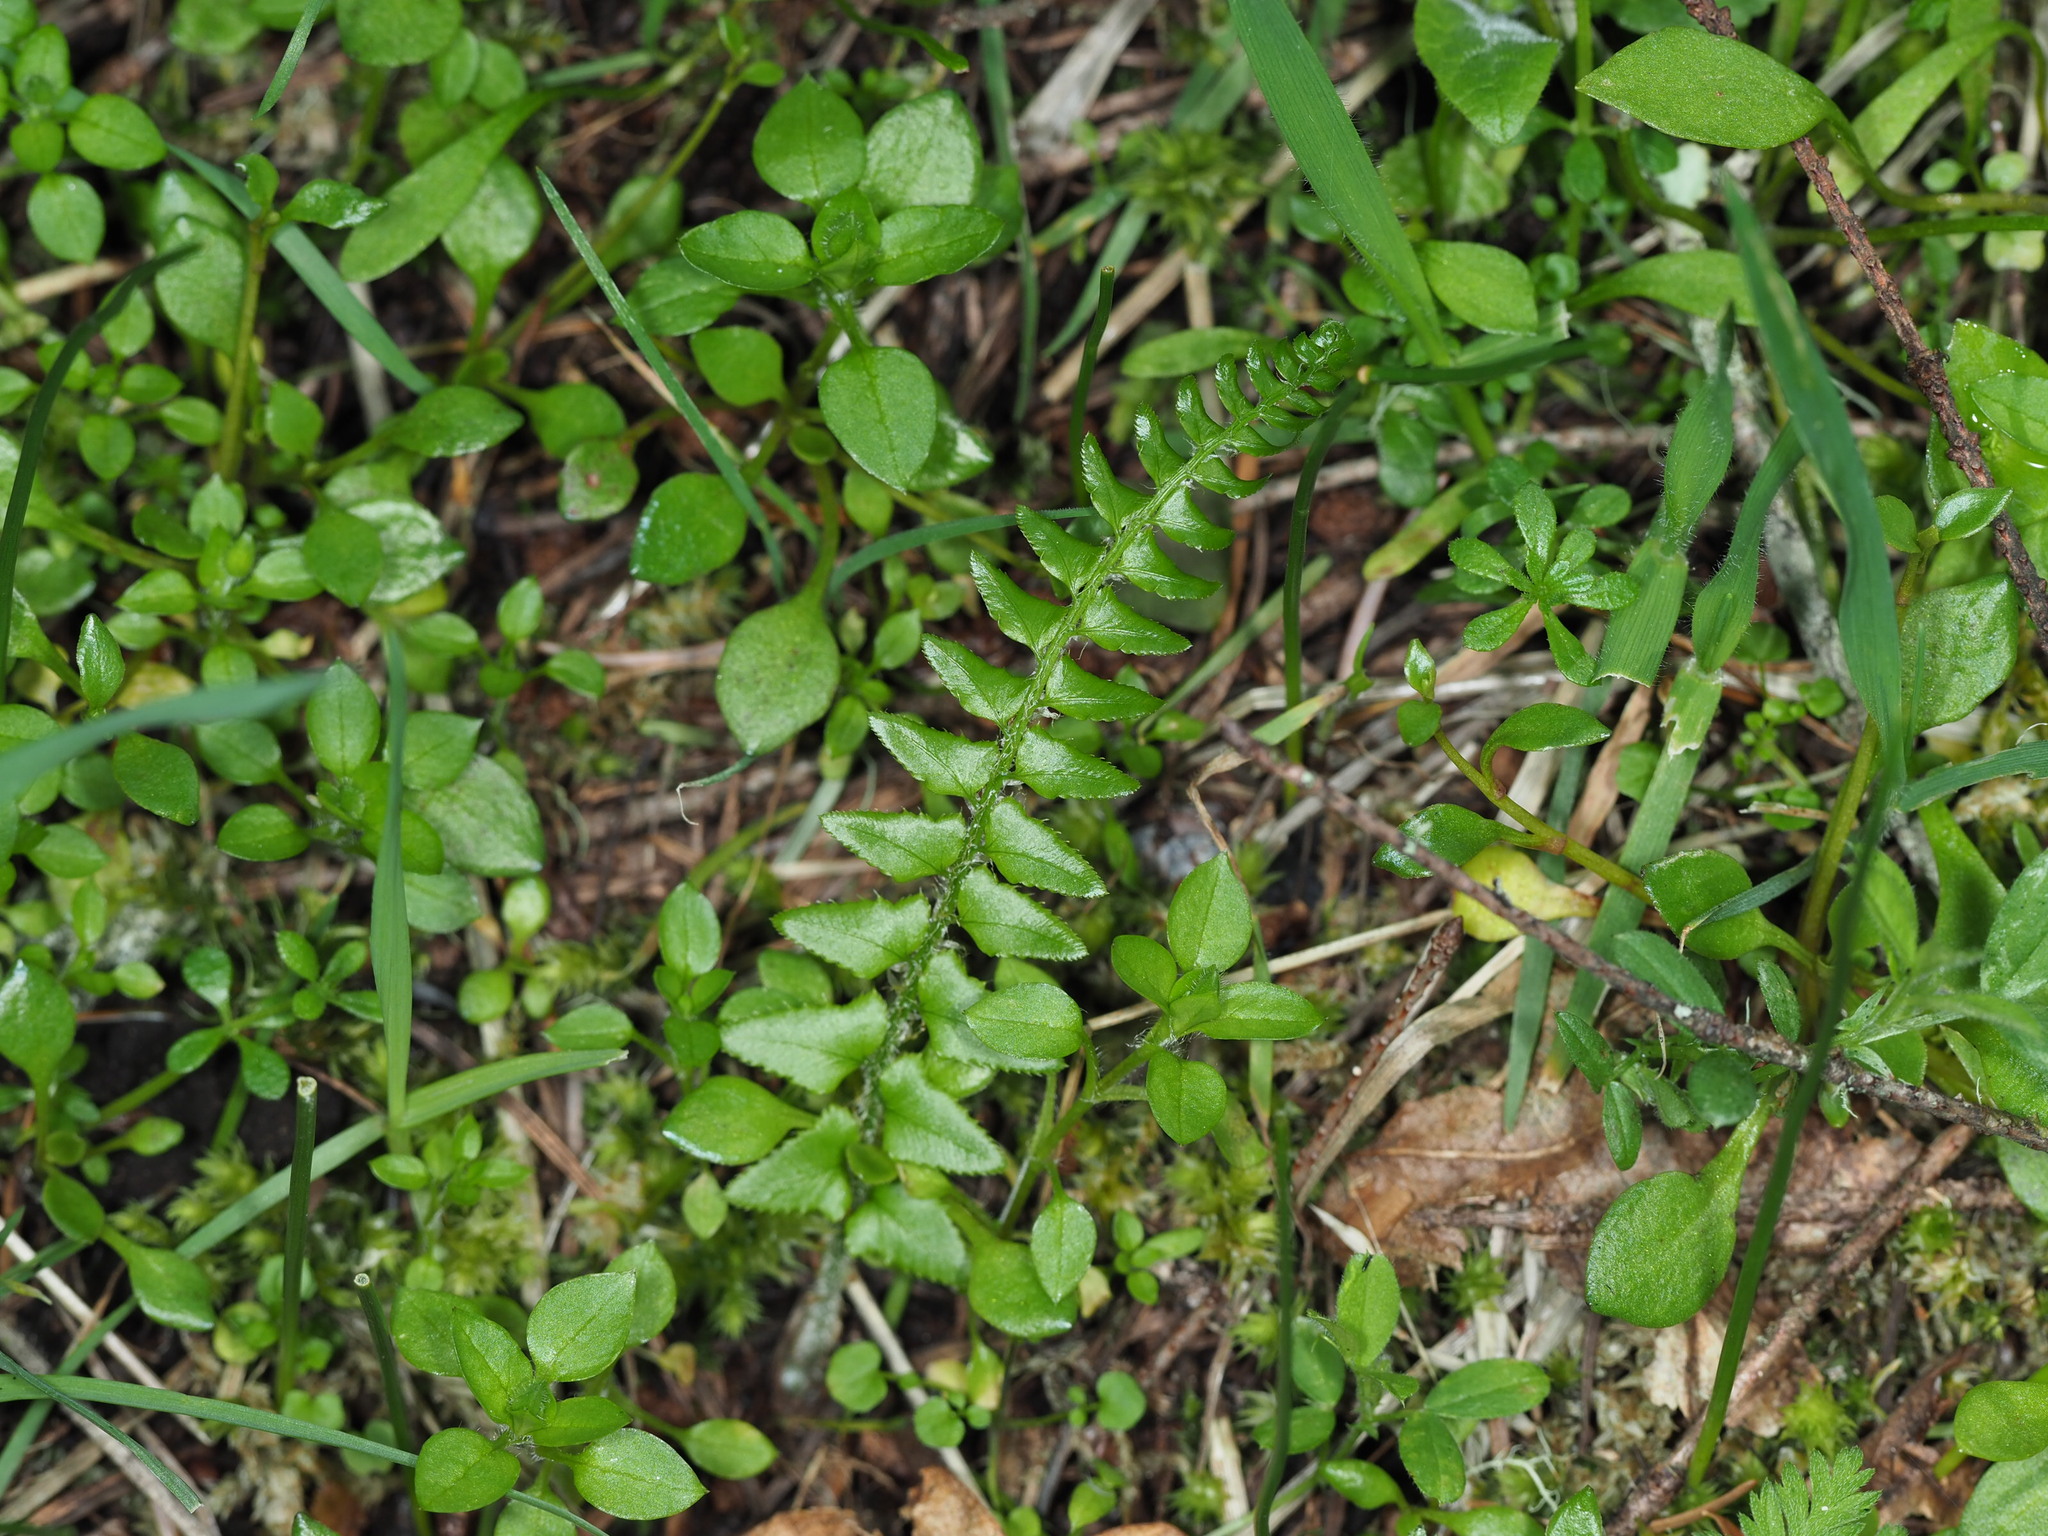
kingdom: Plantae
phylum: Tracheophyta
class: Polypodiopsida
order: Polypodiales
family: Dryopteridaceae
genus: Polystichum
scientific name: Polystichum imbricans
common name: Dwarf western sword fern
